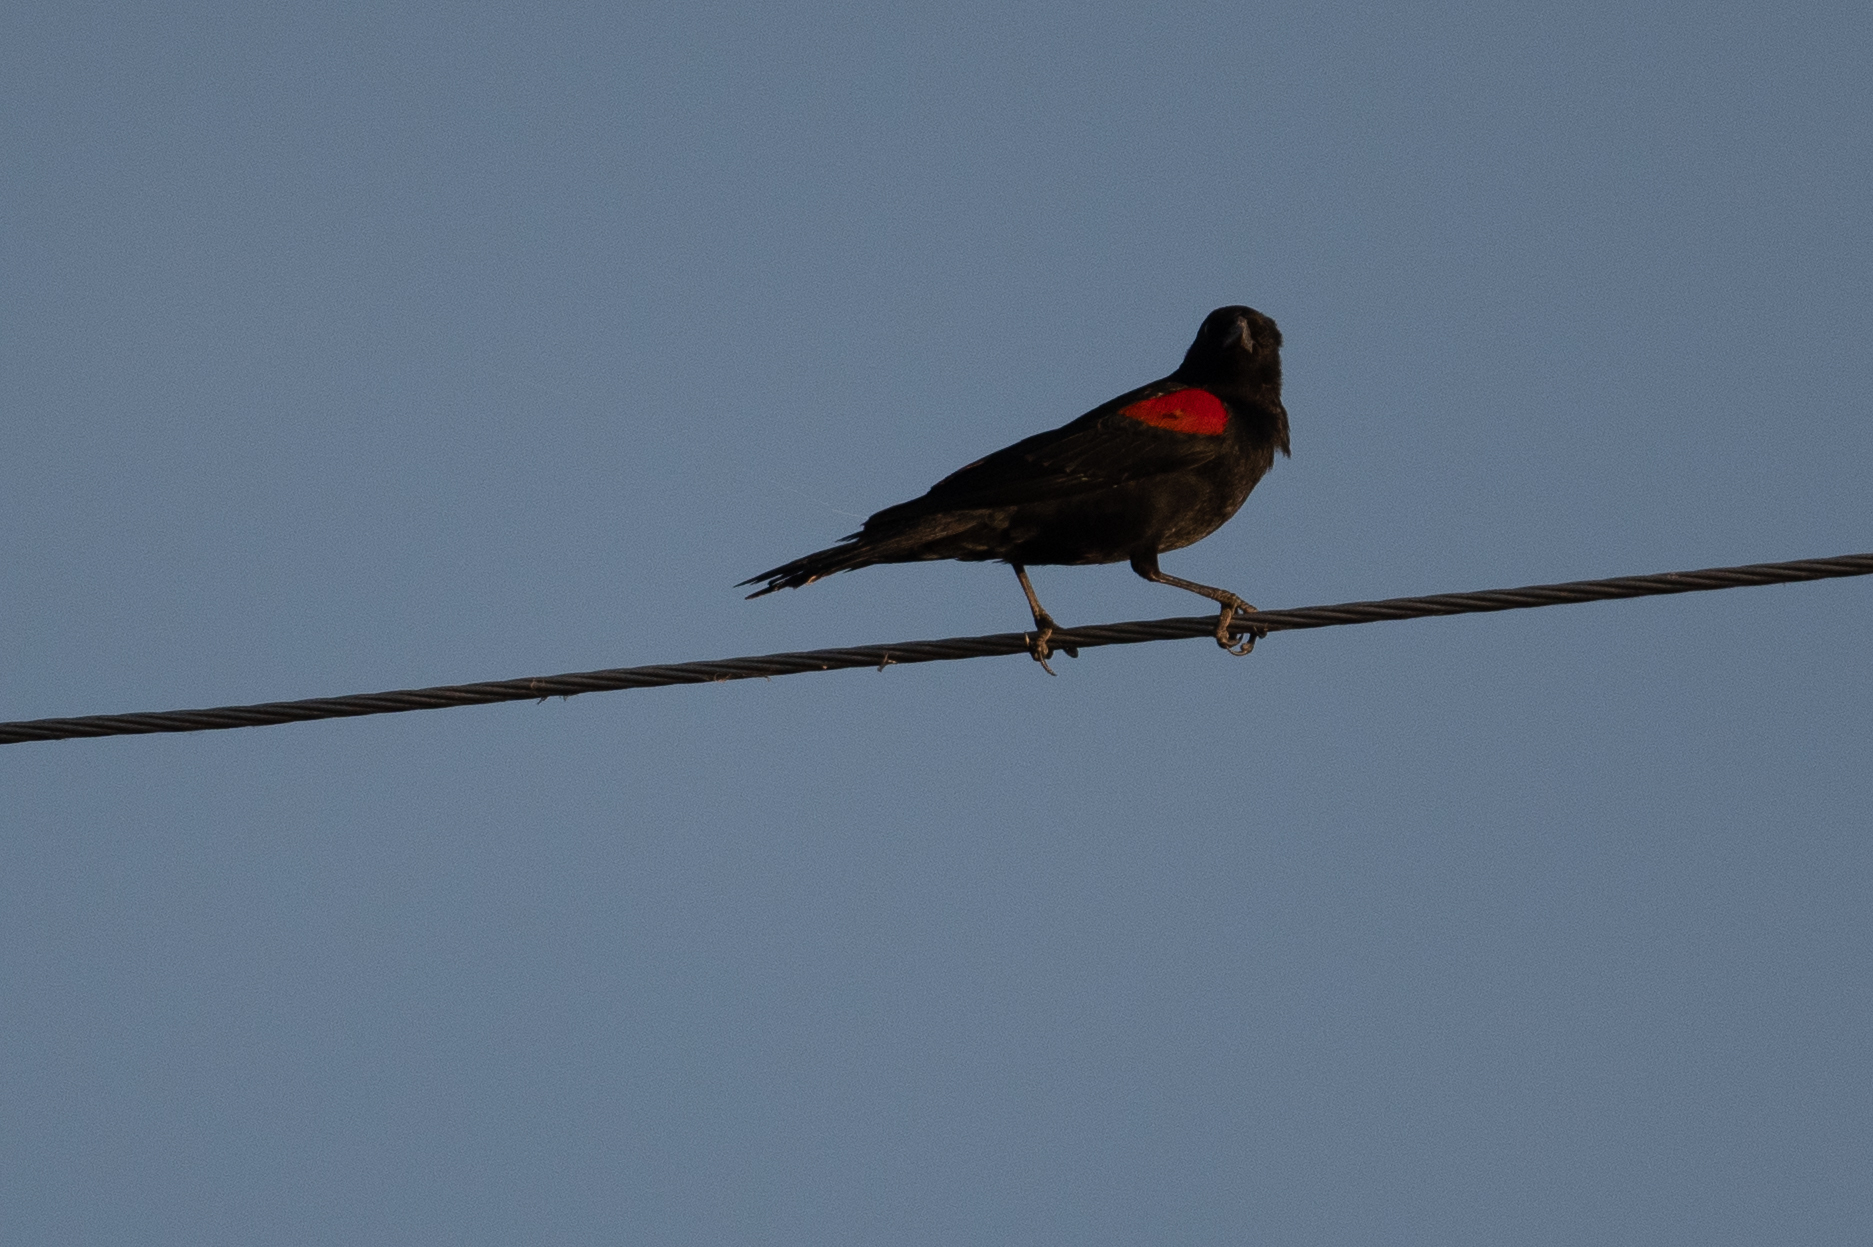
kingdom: Animalia
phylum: Chordata
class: Aves
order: Passeriformes
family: Icteridae
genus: Agelaius
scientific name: Agelaius phoeniceus
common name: Red-winged blackbird
